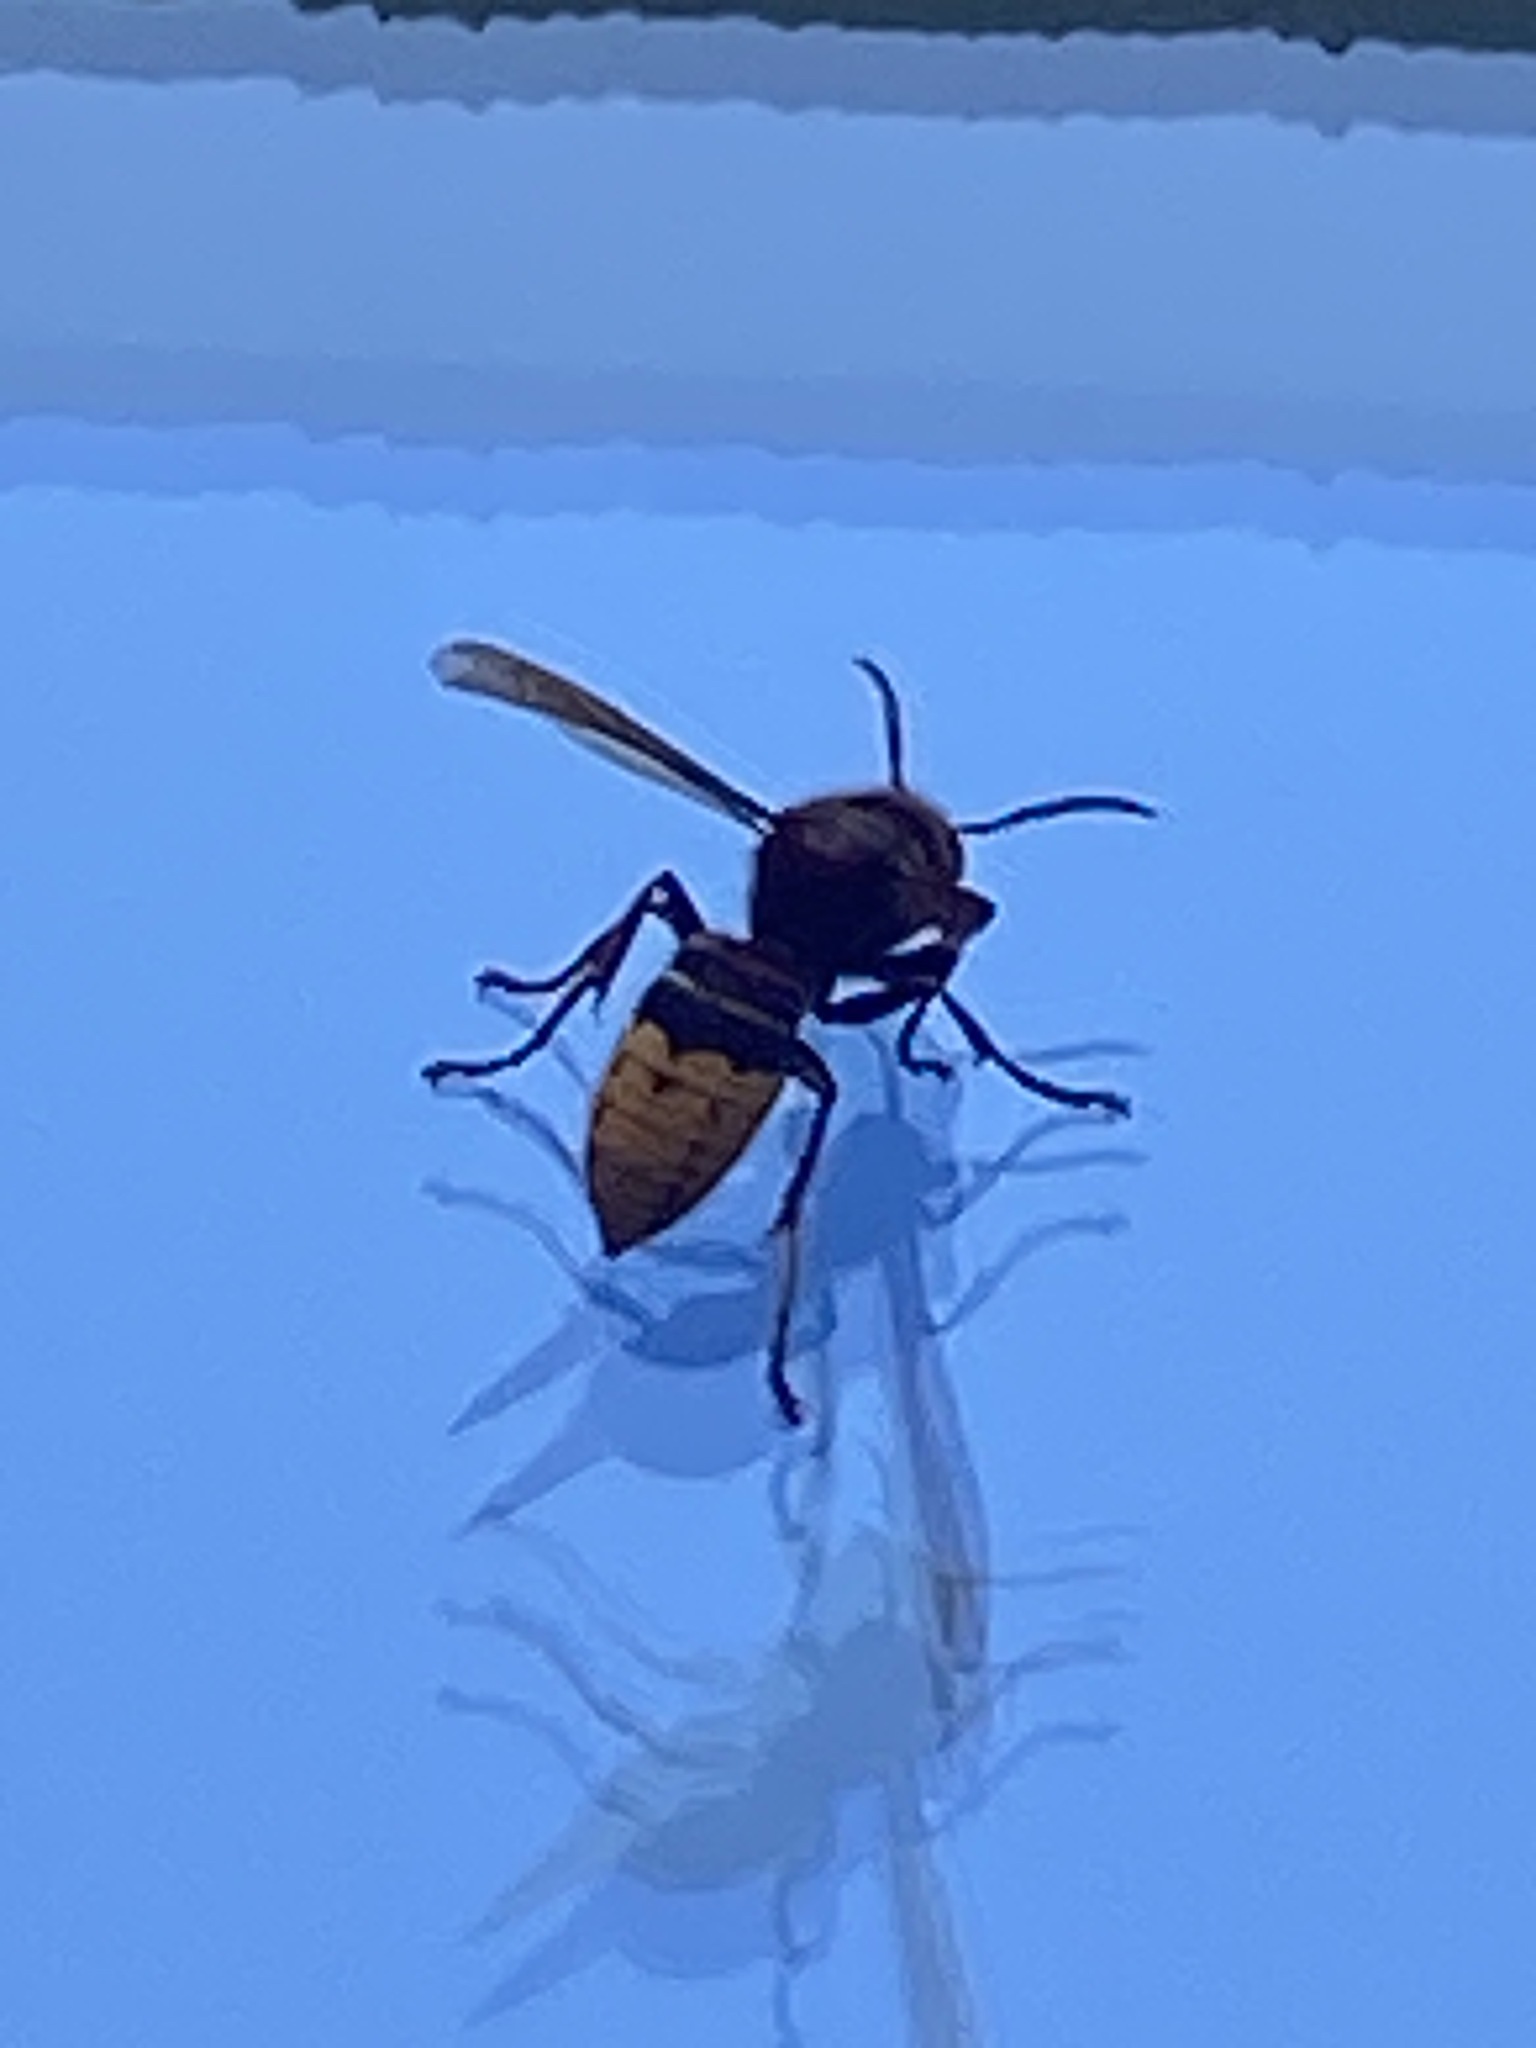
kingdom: Animalia
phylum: Arthropoda
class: Insecta
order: Hymenoptera
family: Vespidae
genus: Vespa
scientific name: Vespa crabro
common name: Hornet
